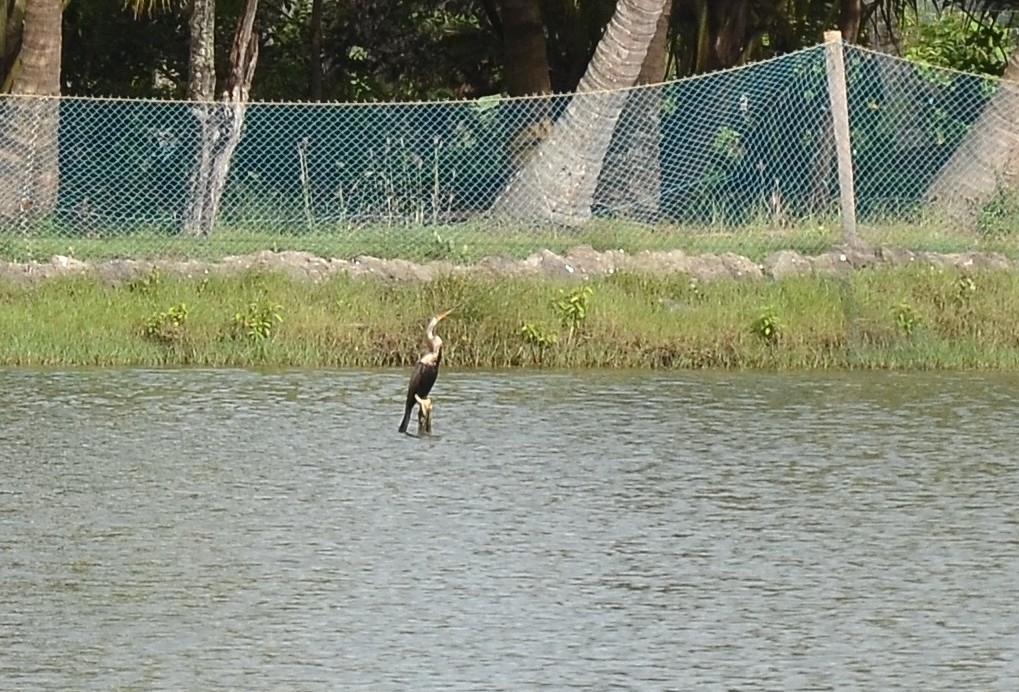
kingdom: Animalia
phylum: Chordata
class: Aves
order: Suliformes
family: Anhingidae
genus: Anhinga
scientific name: Anhinga melanogaster
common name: Oriental darter
